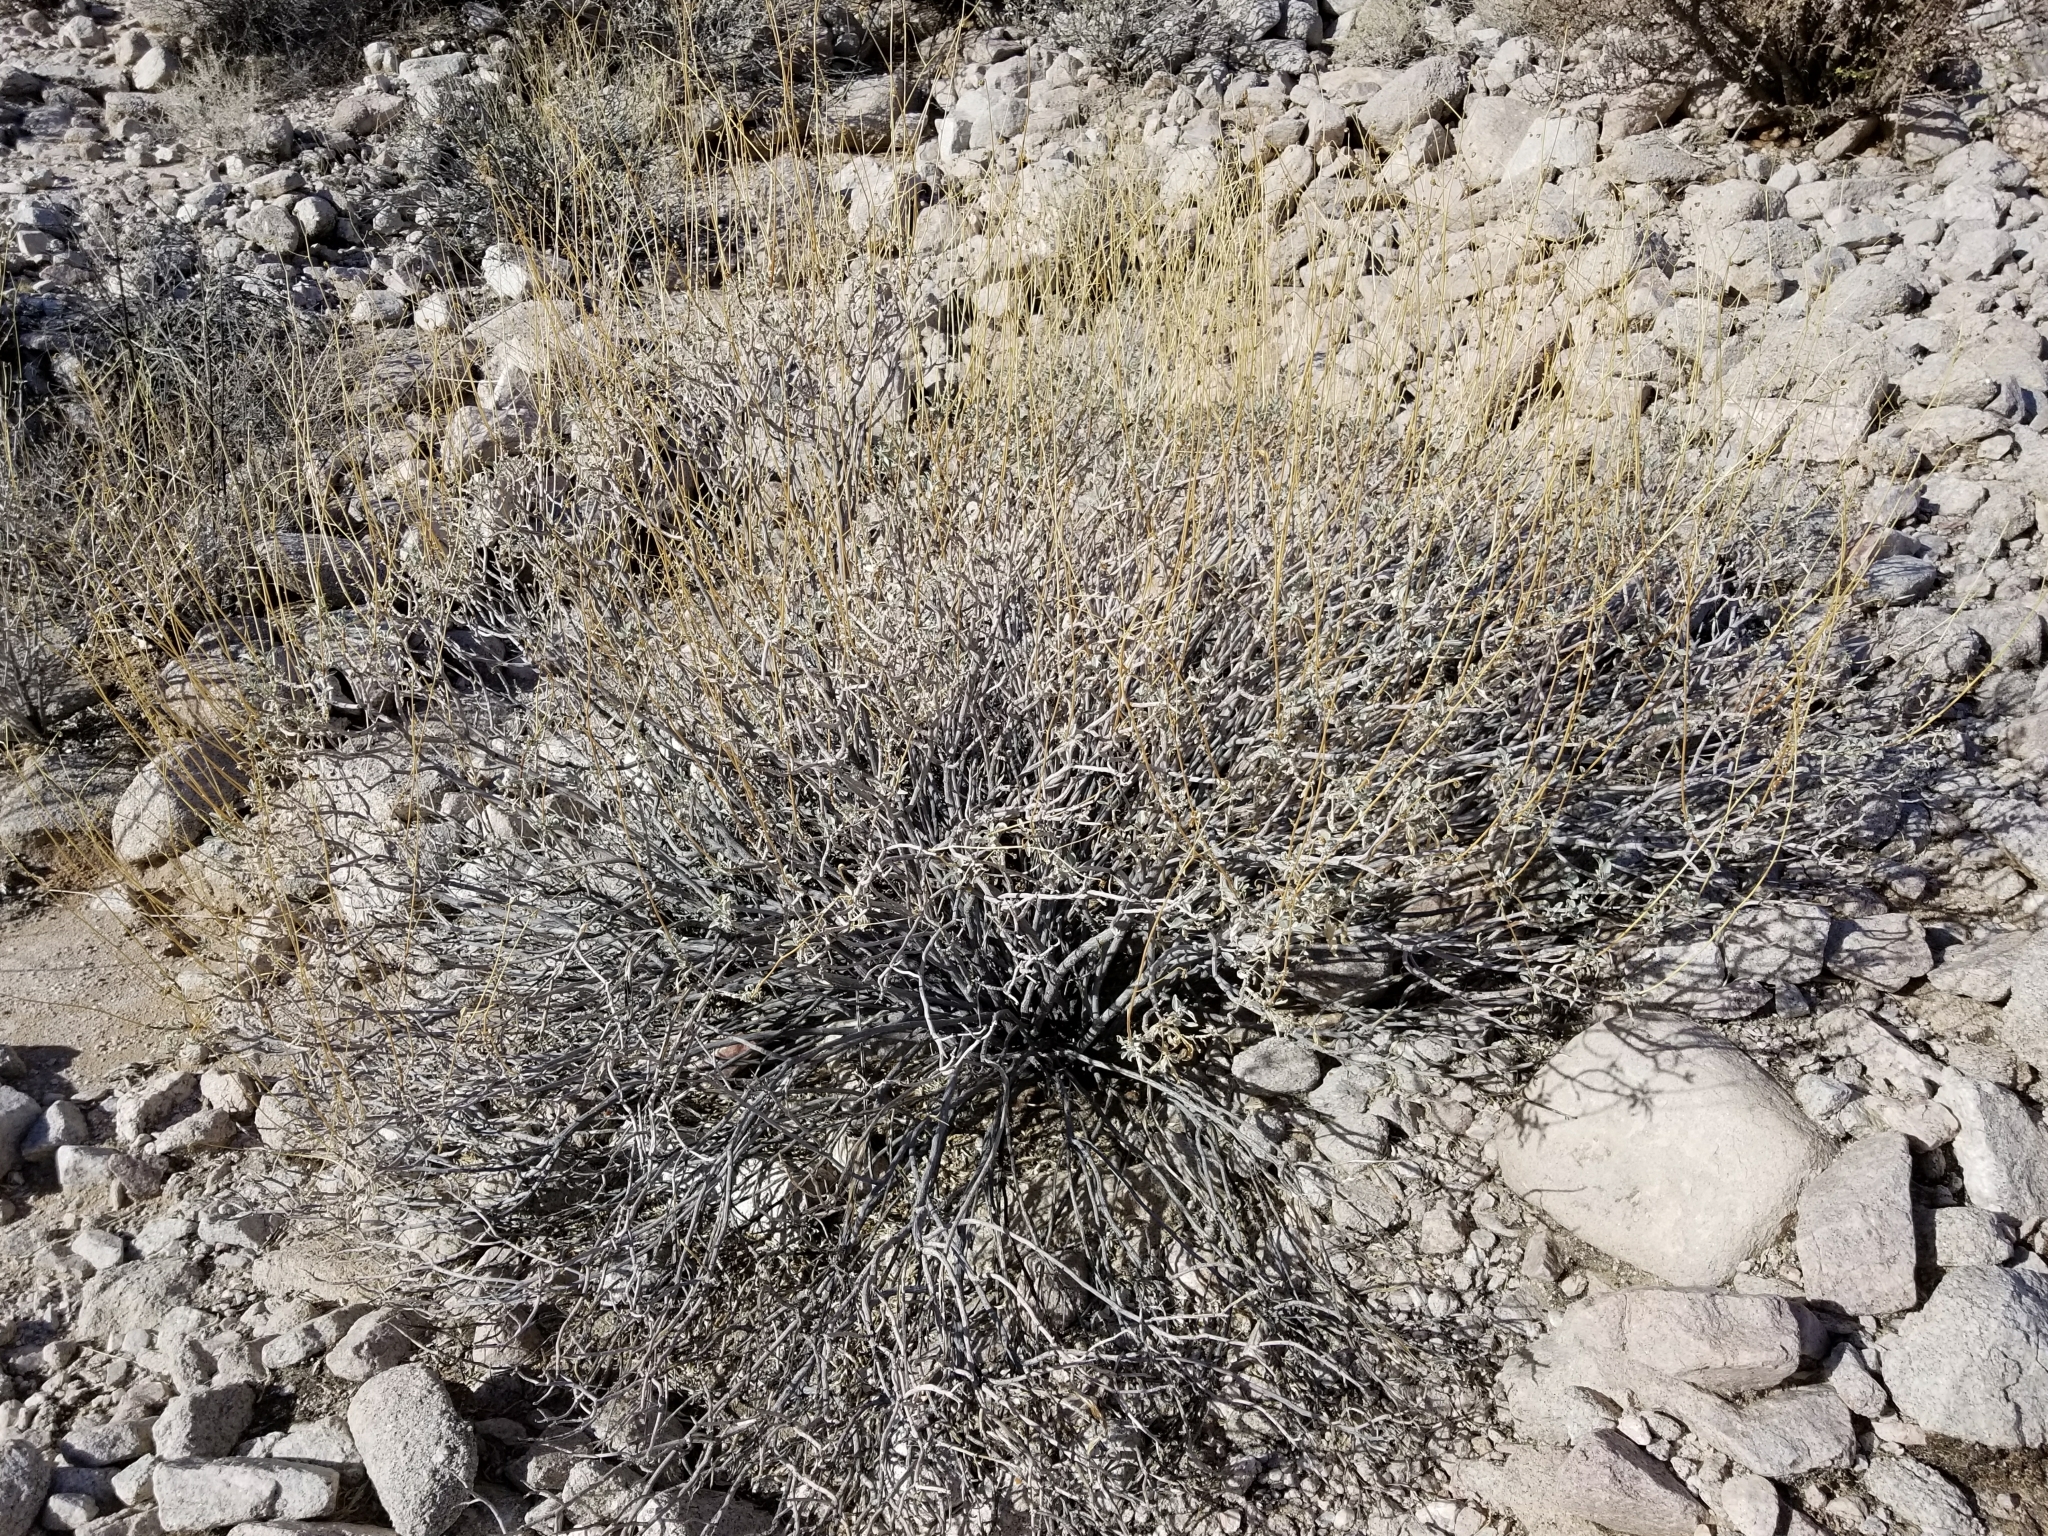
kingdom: Plantae
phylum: Tracheophyta
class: Magnoliopsida
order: Asterales
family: Asteraceae
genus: Encelia
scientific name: Encelia farinosa
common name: Brittlebush
